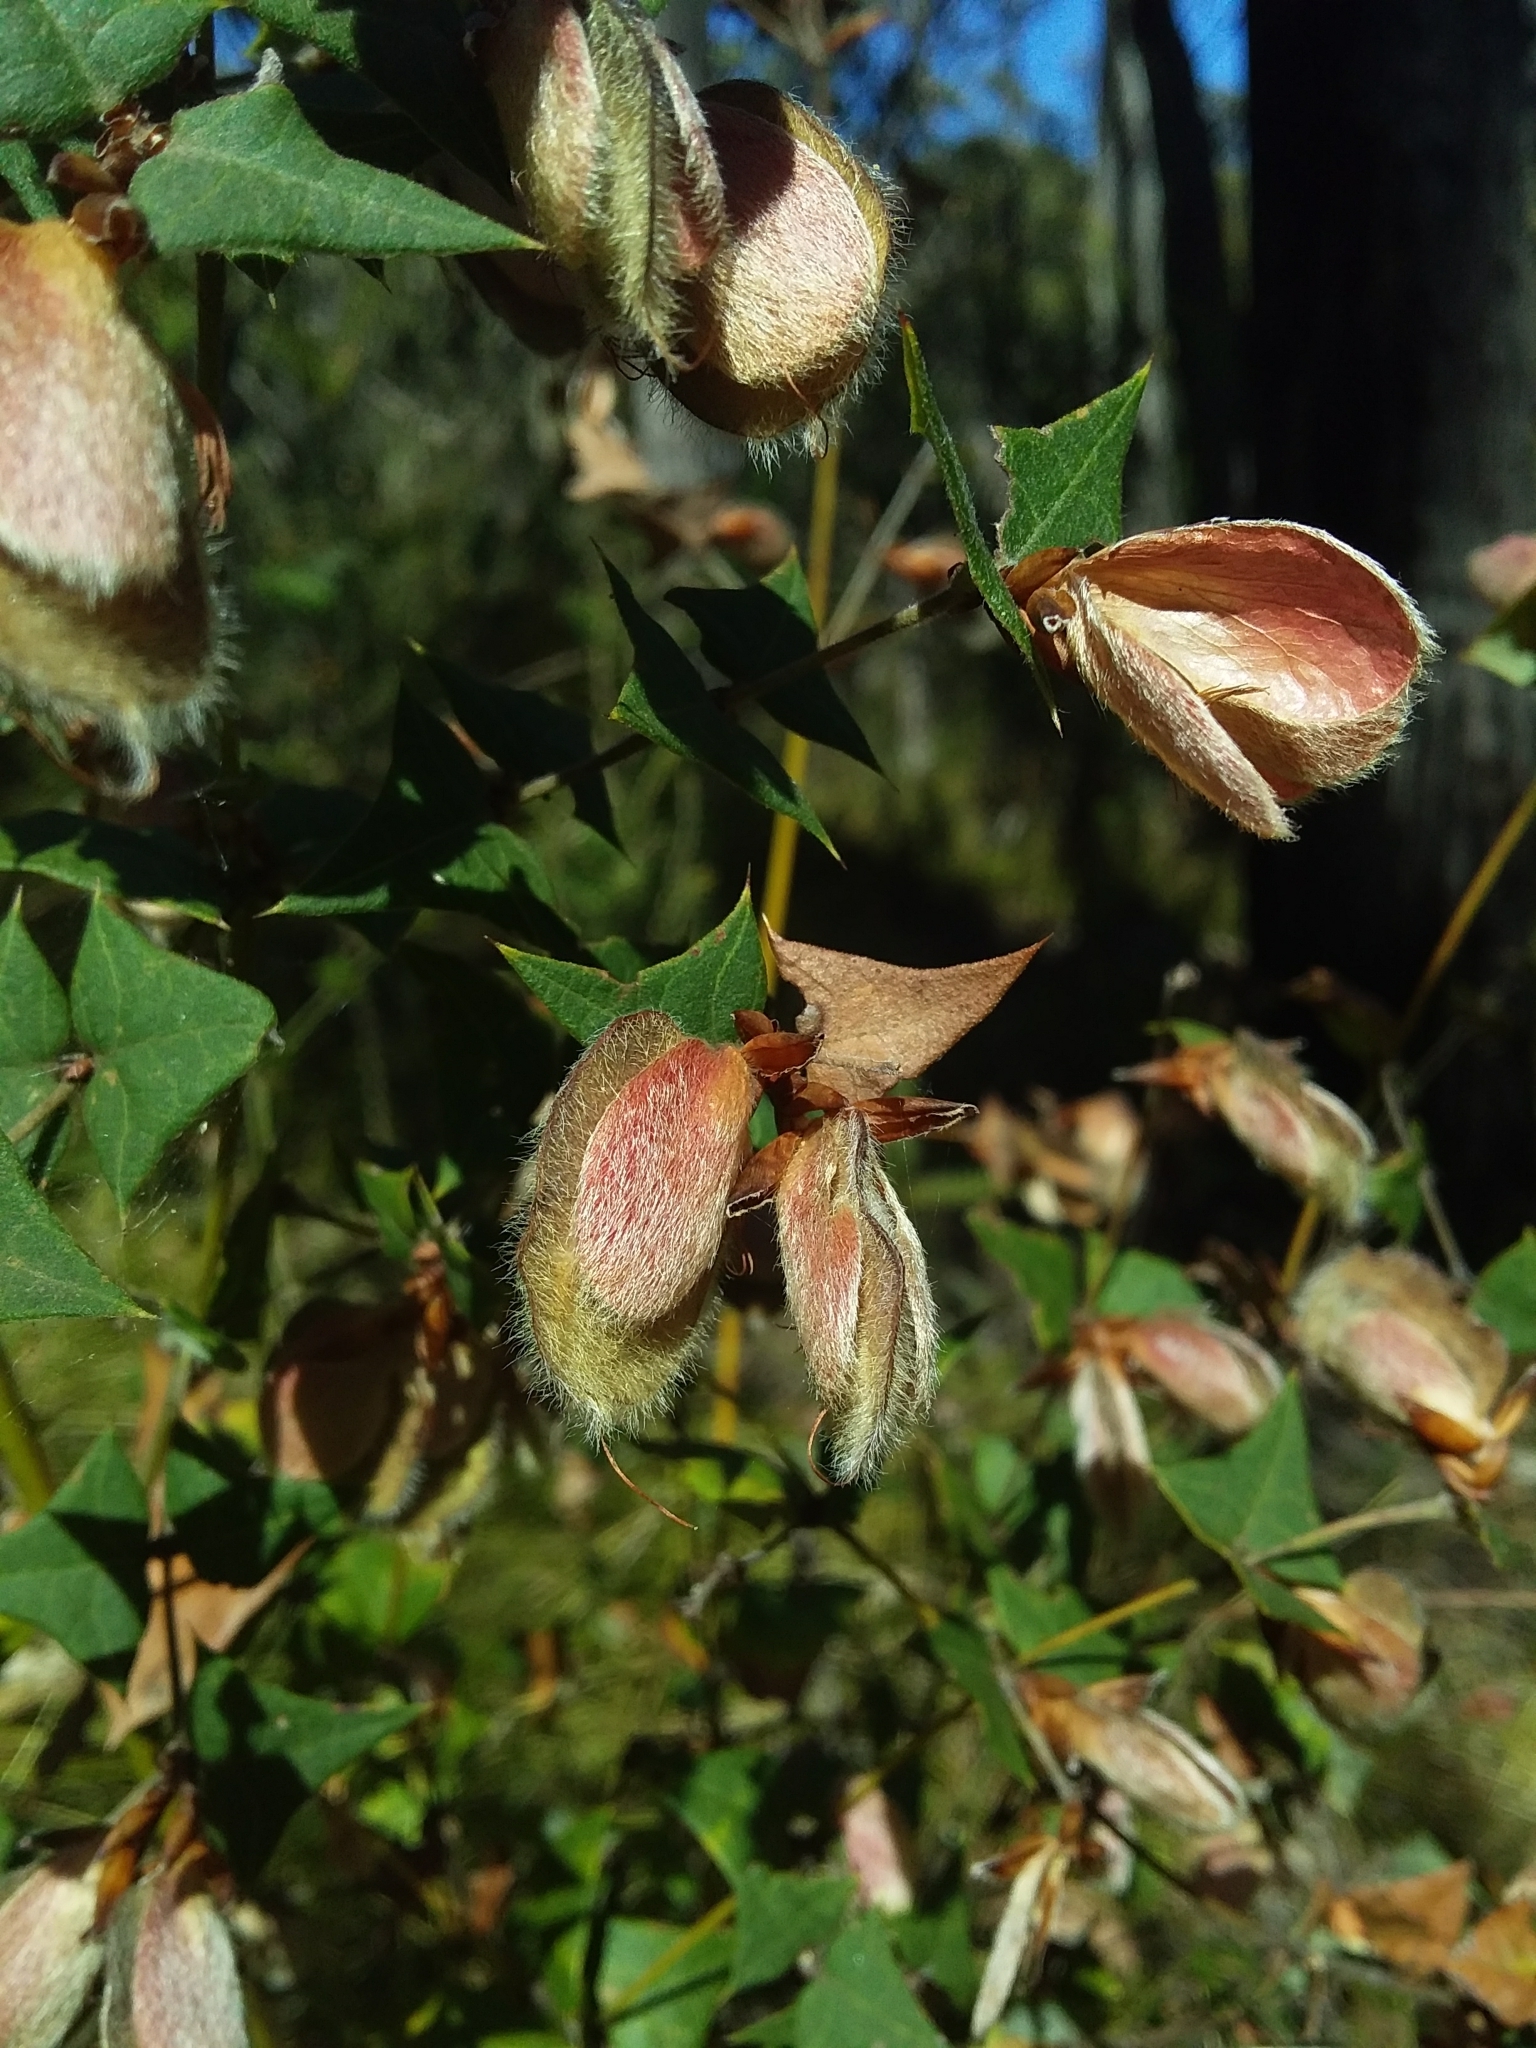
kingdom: Plantae
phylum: Tracheophyta
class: Magnoliopsida
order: Fabales
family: Fabaceae
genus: Platylobium
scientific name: Platylobium obtusangulum
